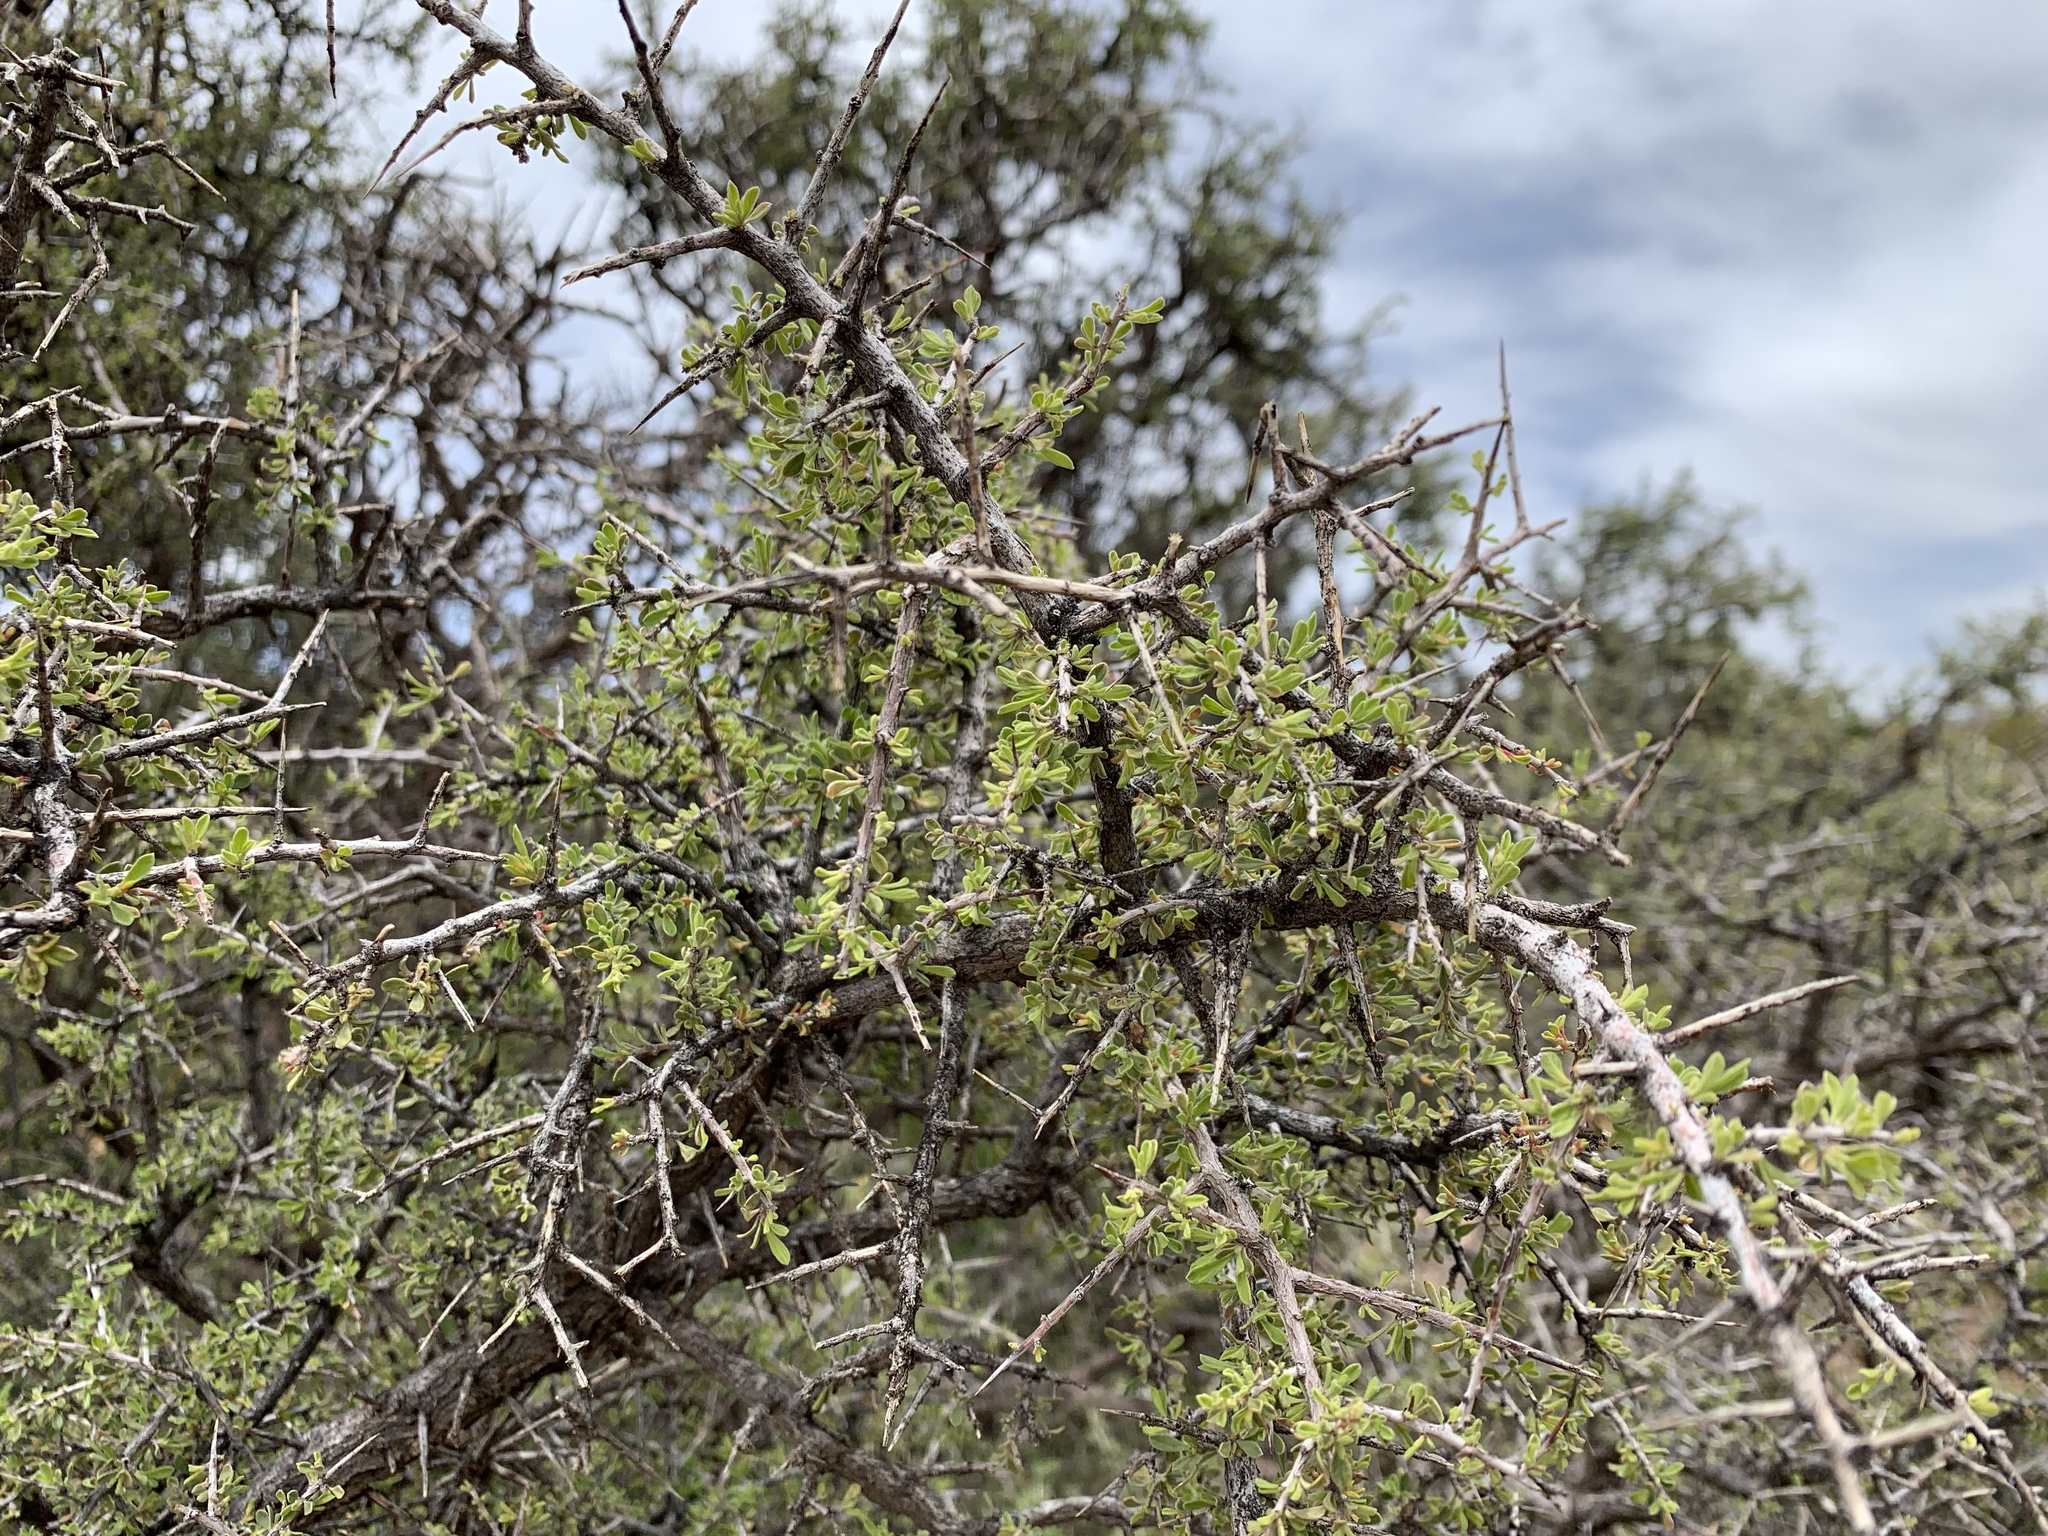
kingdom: Plantae
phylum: Tracheophyta
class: Magnoliopsida
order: Rosales
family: Rhamnaceae
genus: Condalia
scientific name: Condalia warnockii
